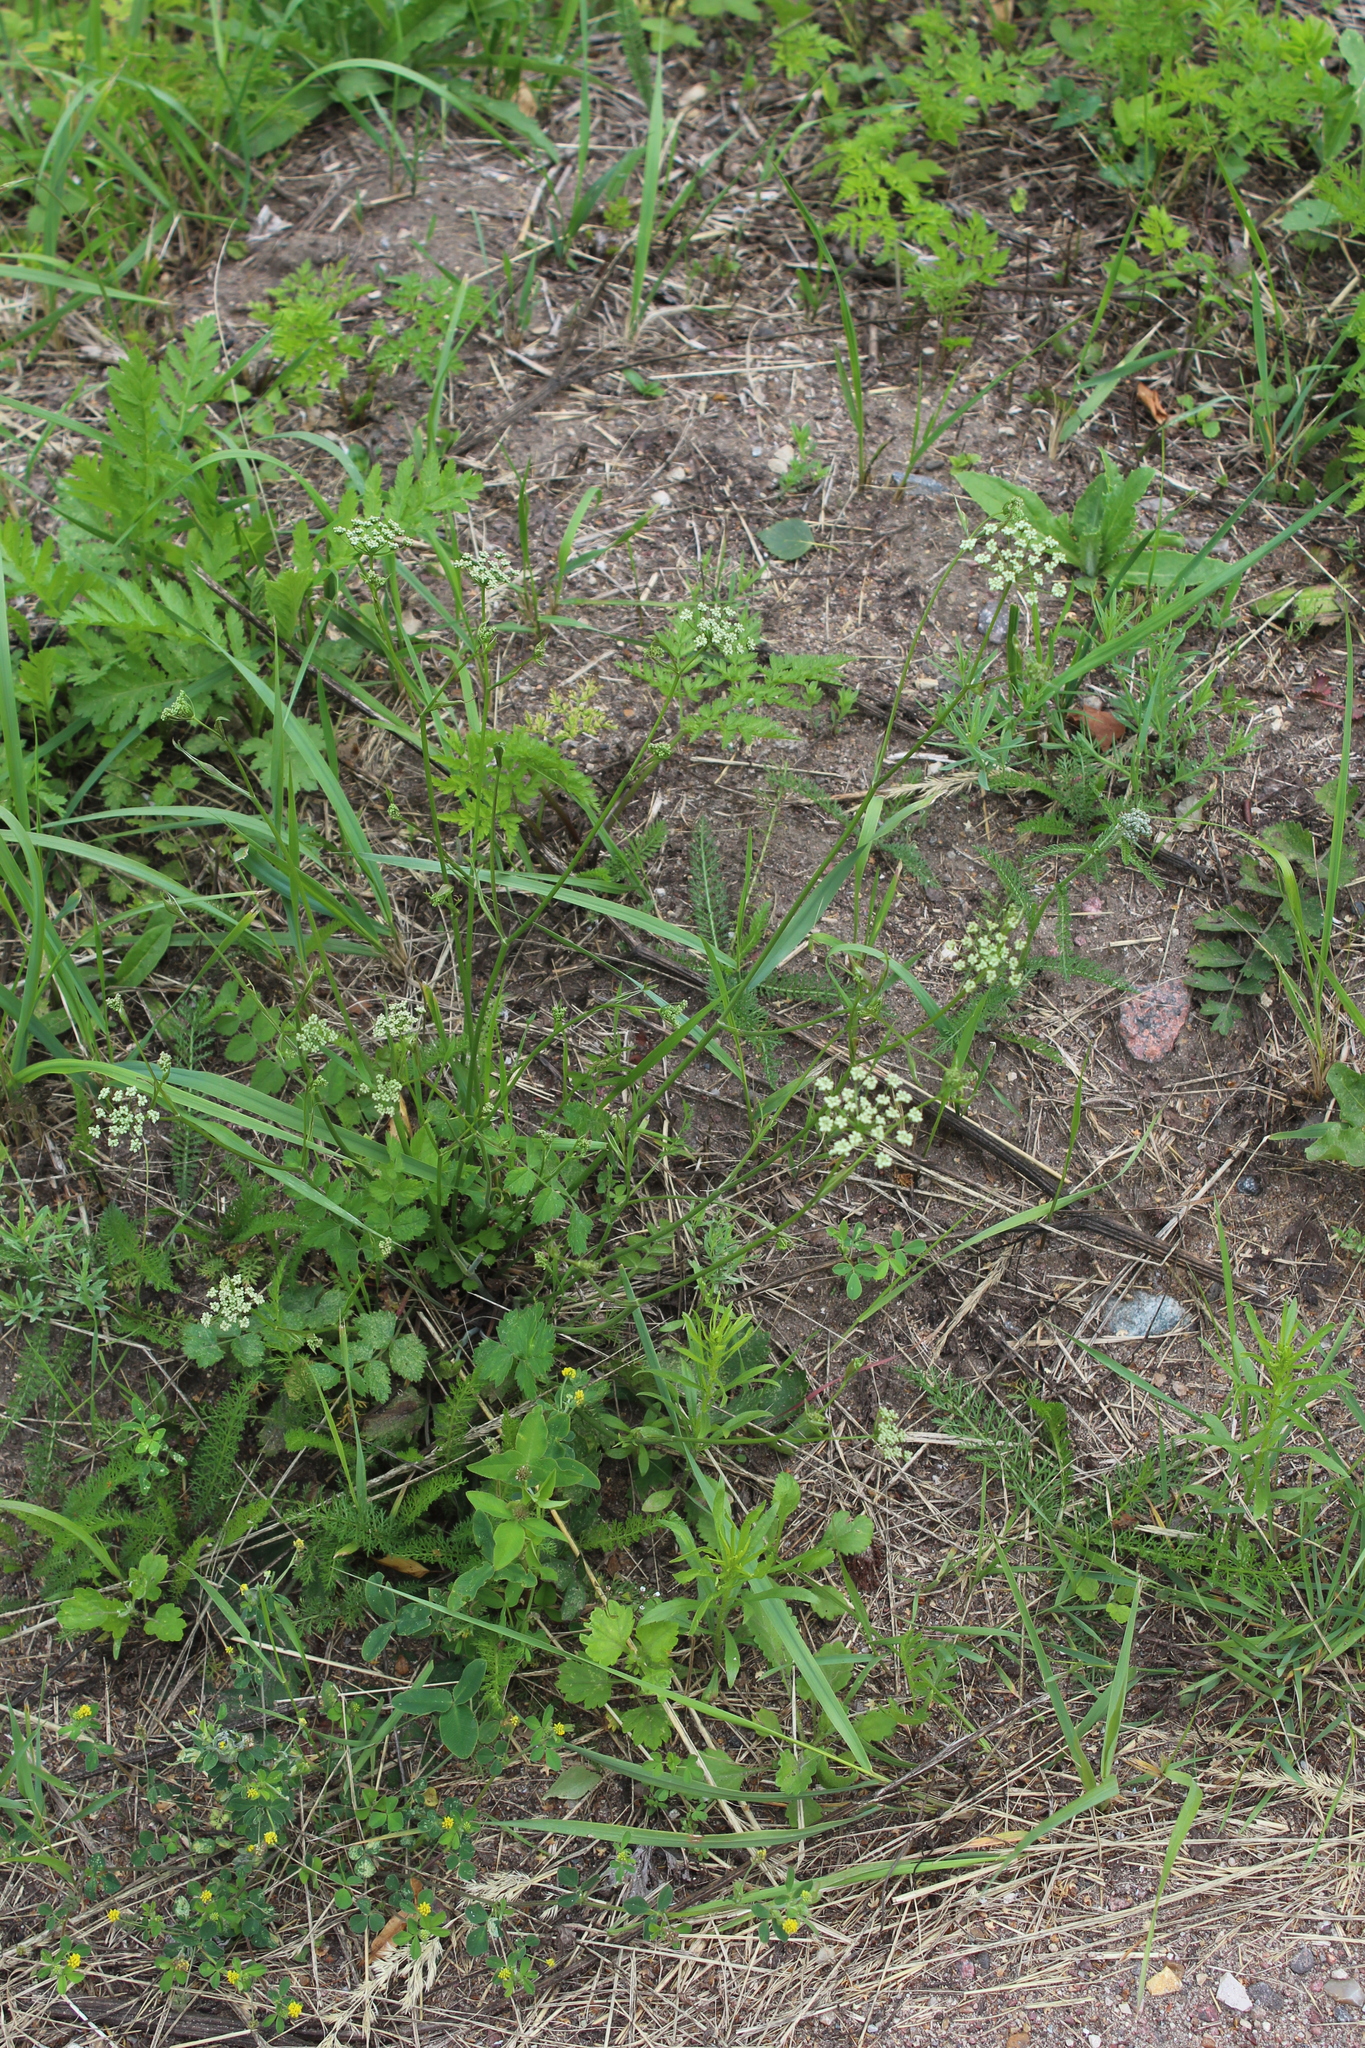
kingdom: Plantae
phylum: Tracheophyta
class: Magnoliopsida
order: Apiales
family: Apiaceae
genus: Pimpinella
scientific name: Pimpinella saxifraga
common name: Burnet-saxifrage
